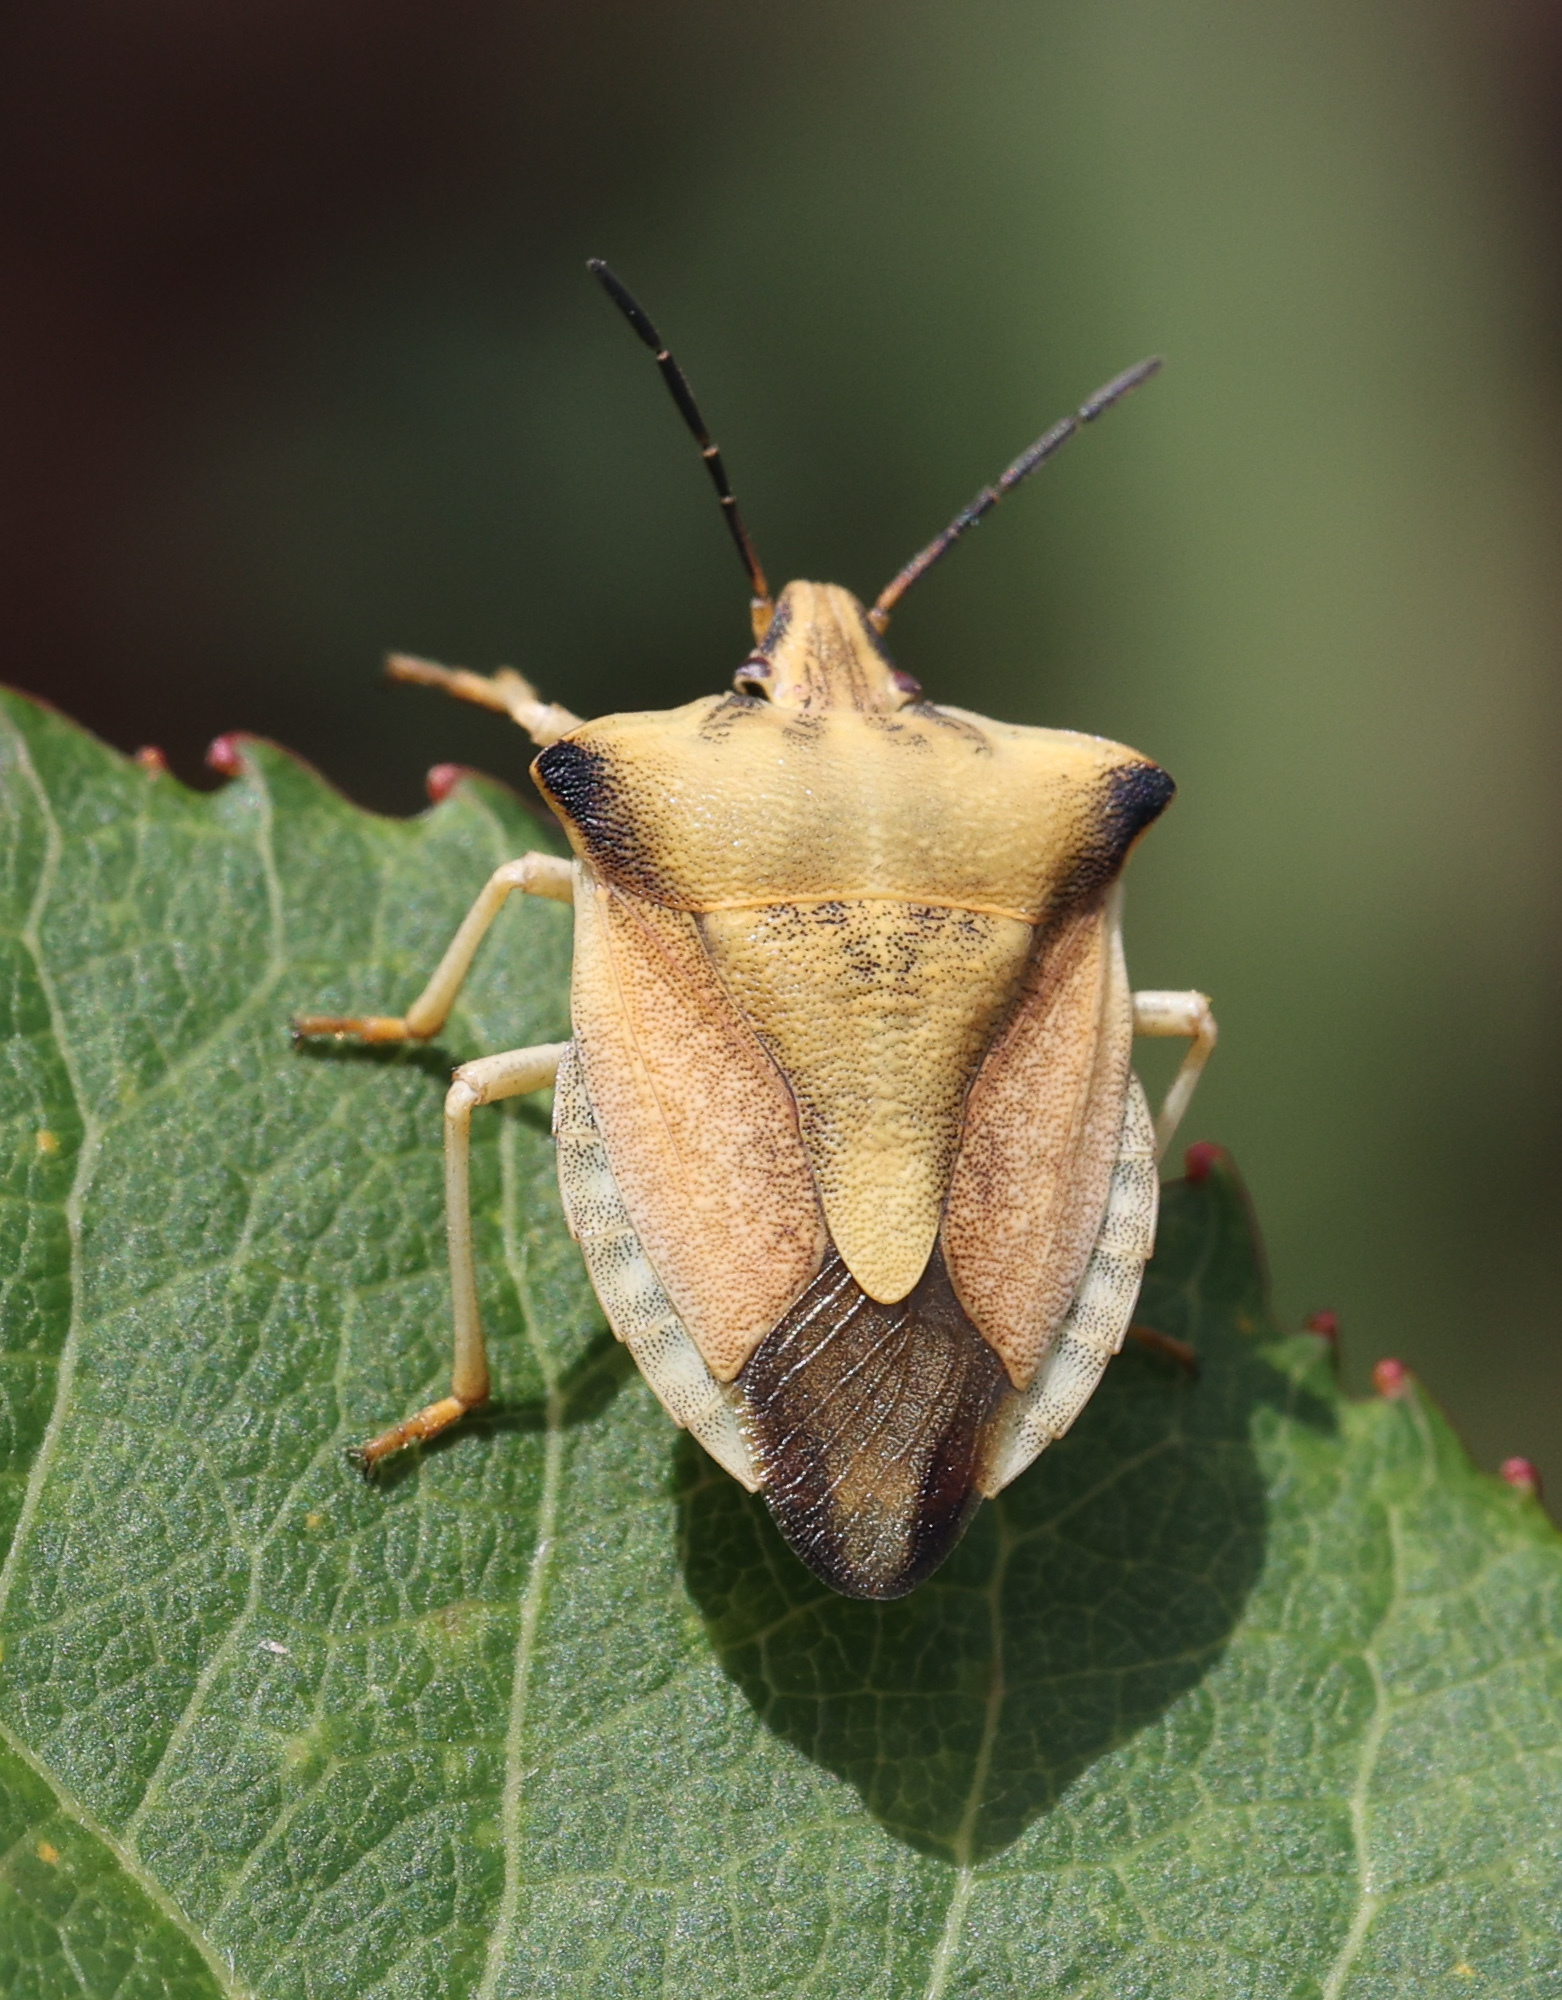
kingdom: Animalia
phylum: Arthropoda
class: Insecta
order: Hemiptera
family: Pentatomidae
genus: Carpocoris
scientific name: Carpocoris fuscispinus
